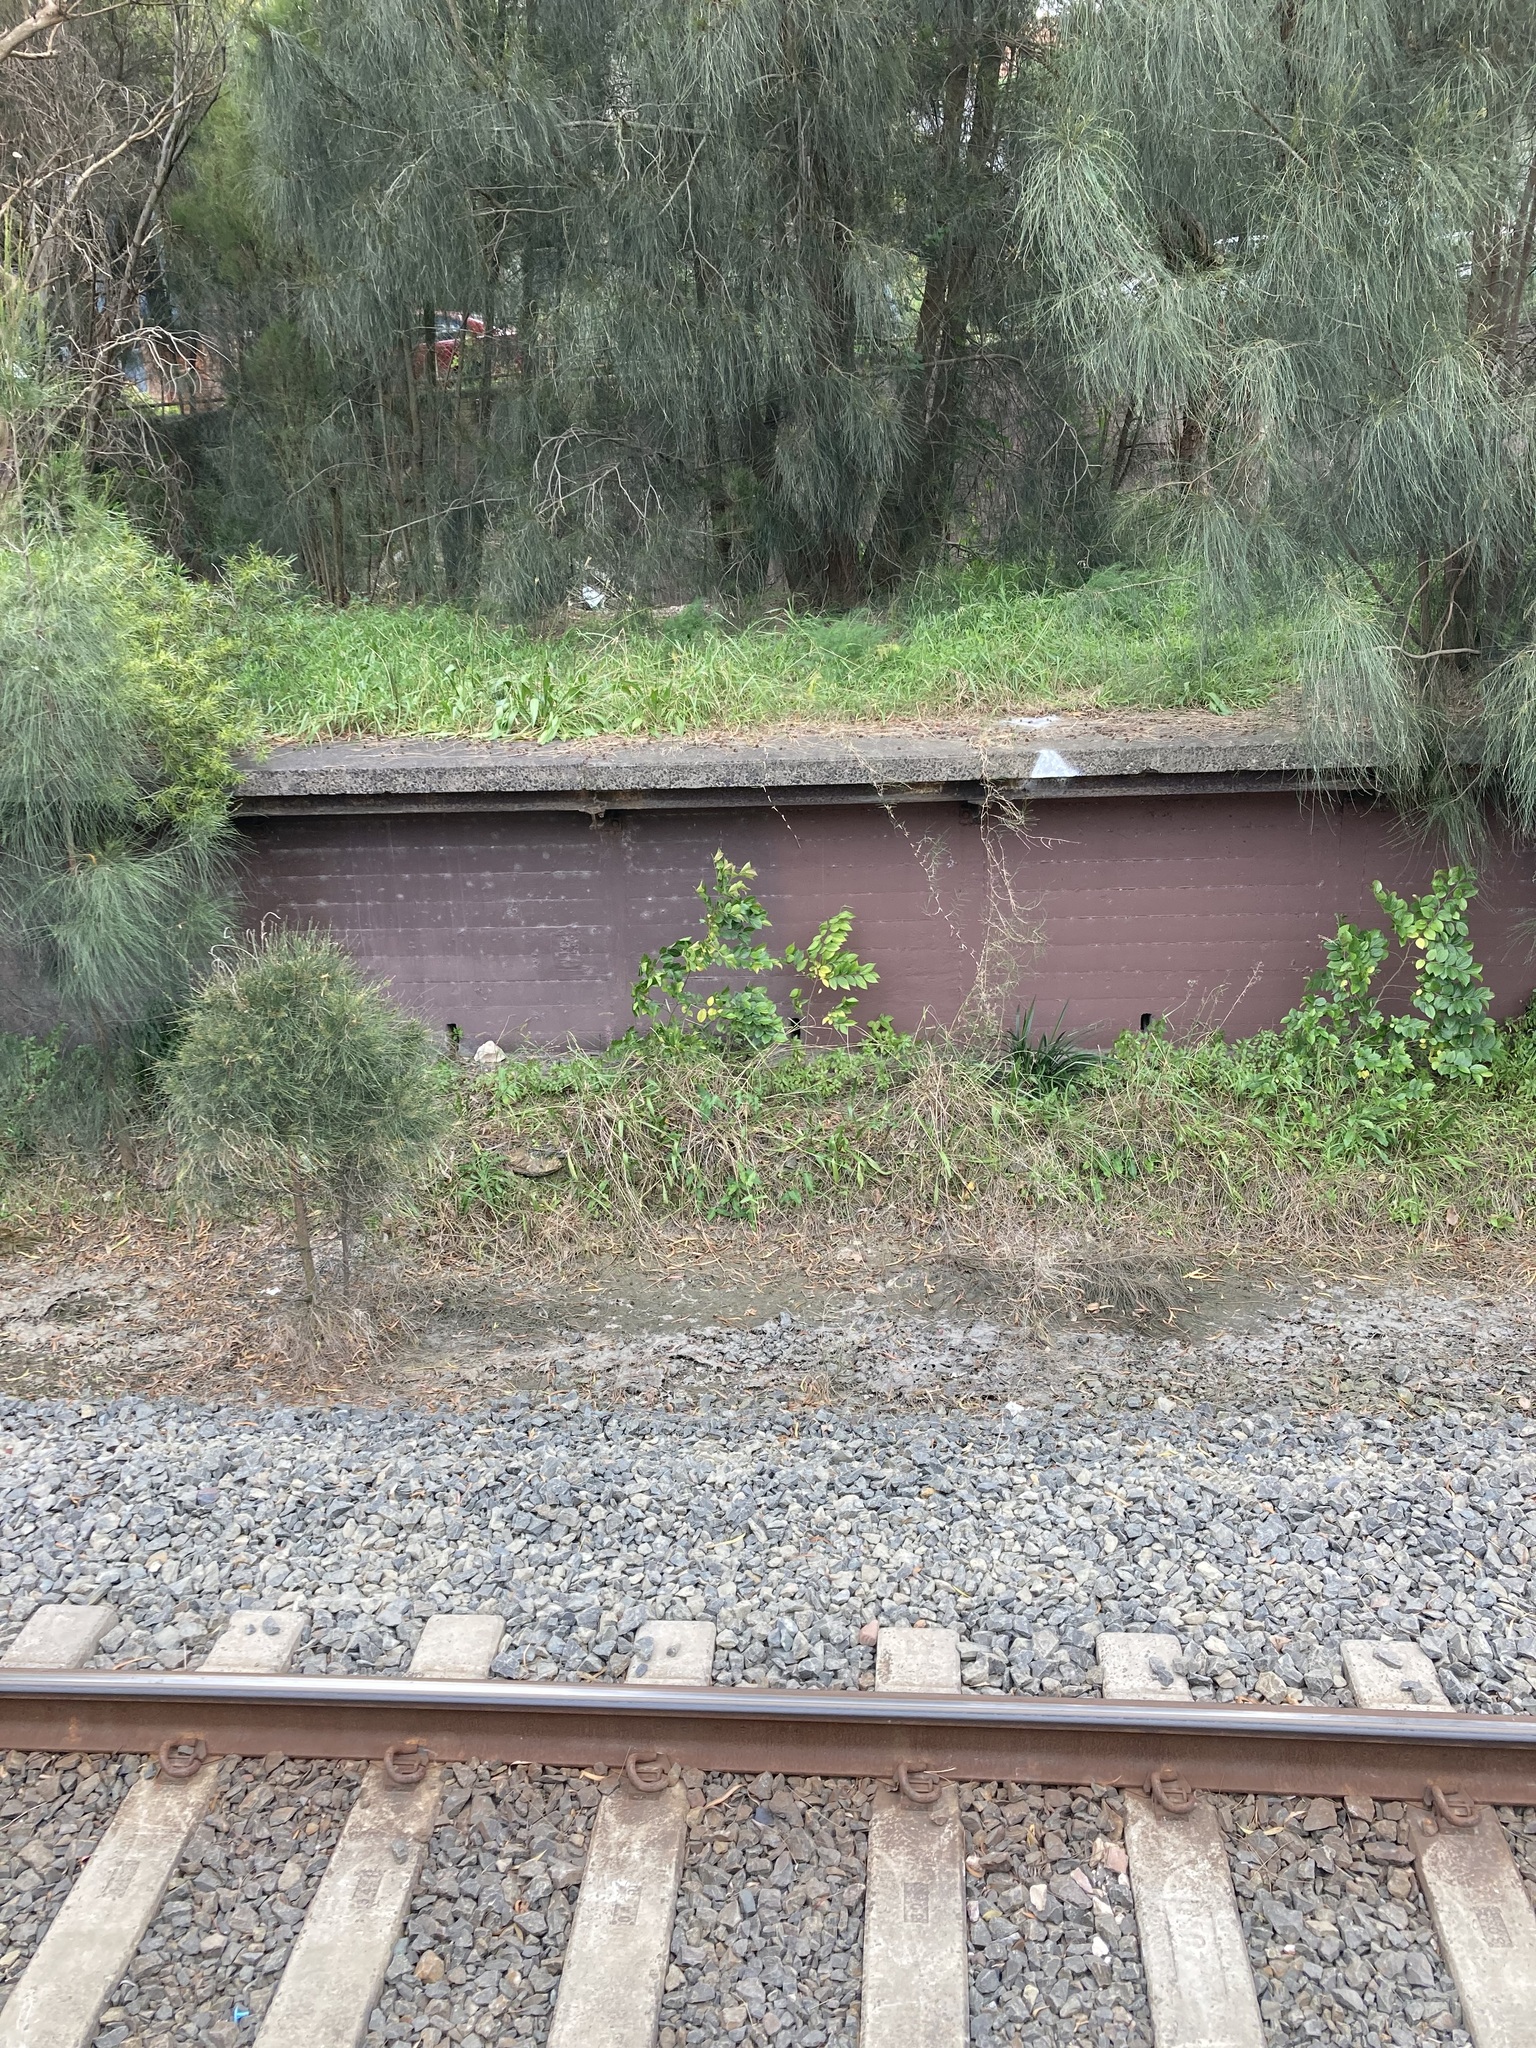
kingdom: Plantae
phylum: Tracheophyta
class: Magnoliopsida
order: Rosales
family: Cannabaceae
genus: Celtis
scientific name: Celtis sinensis
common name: Chinese hackberry
